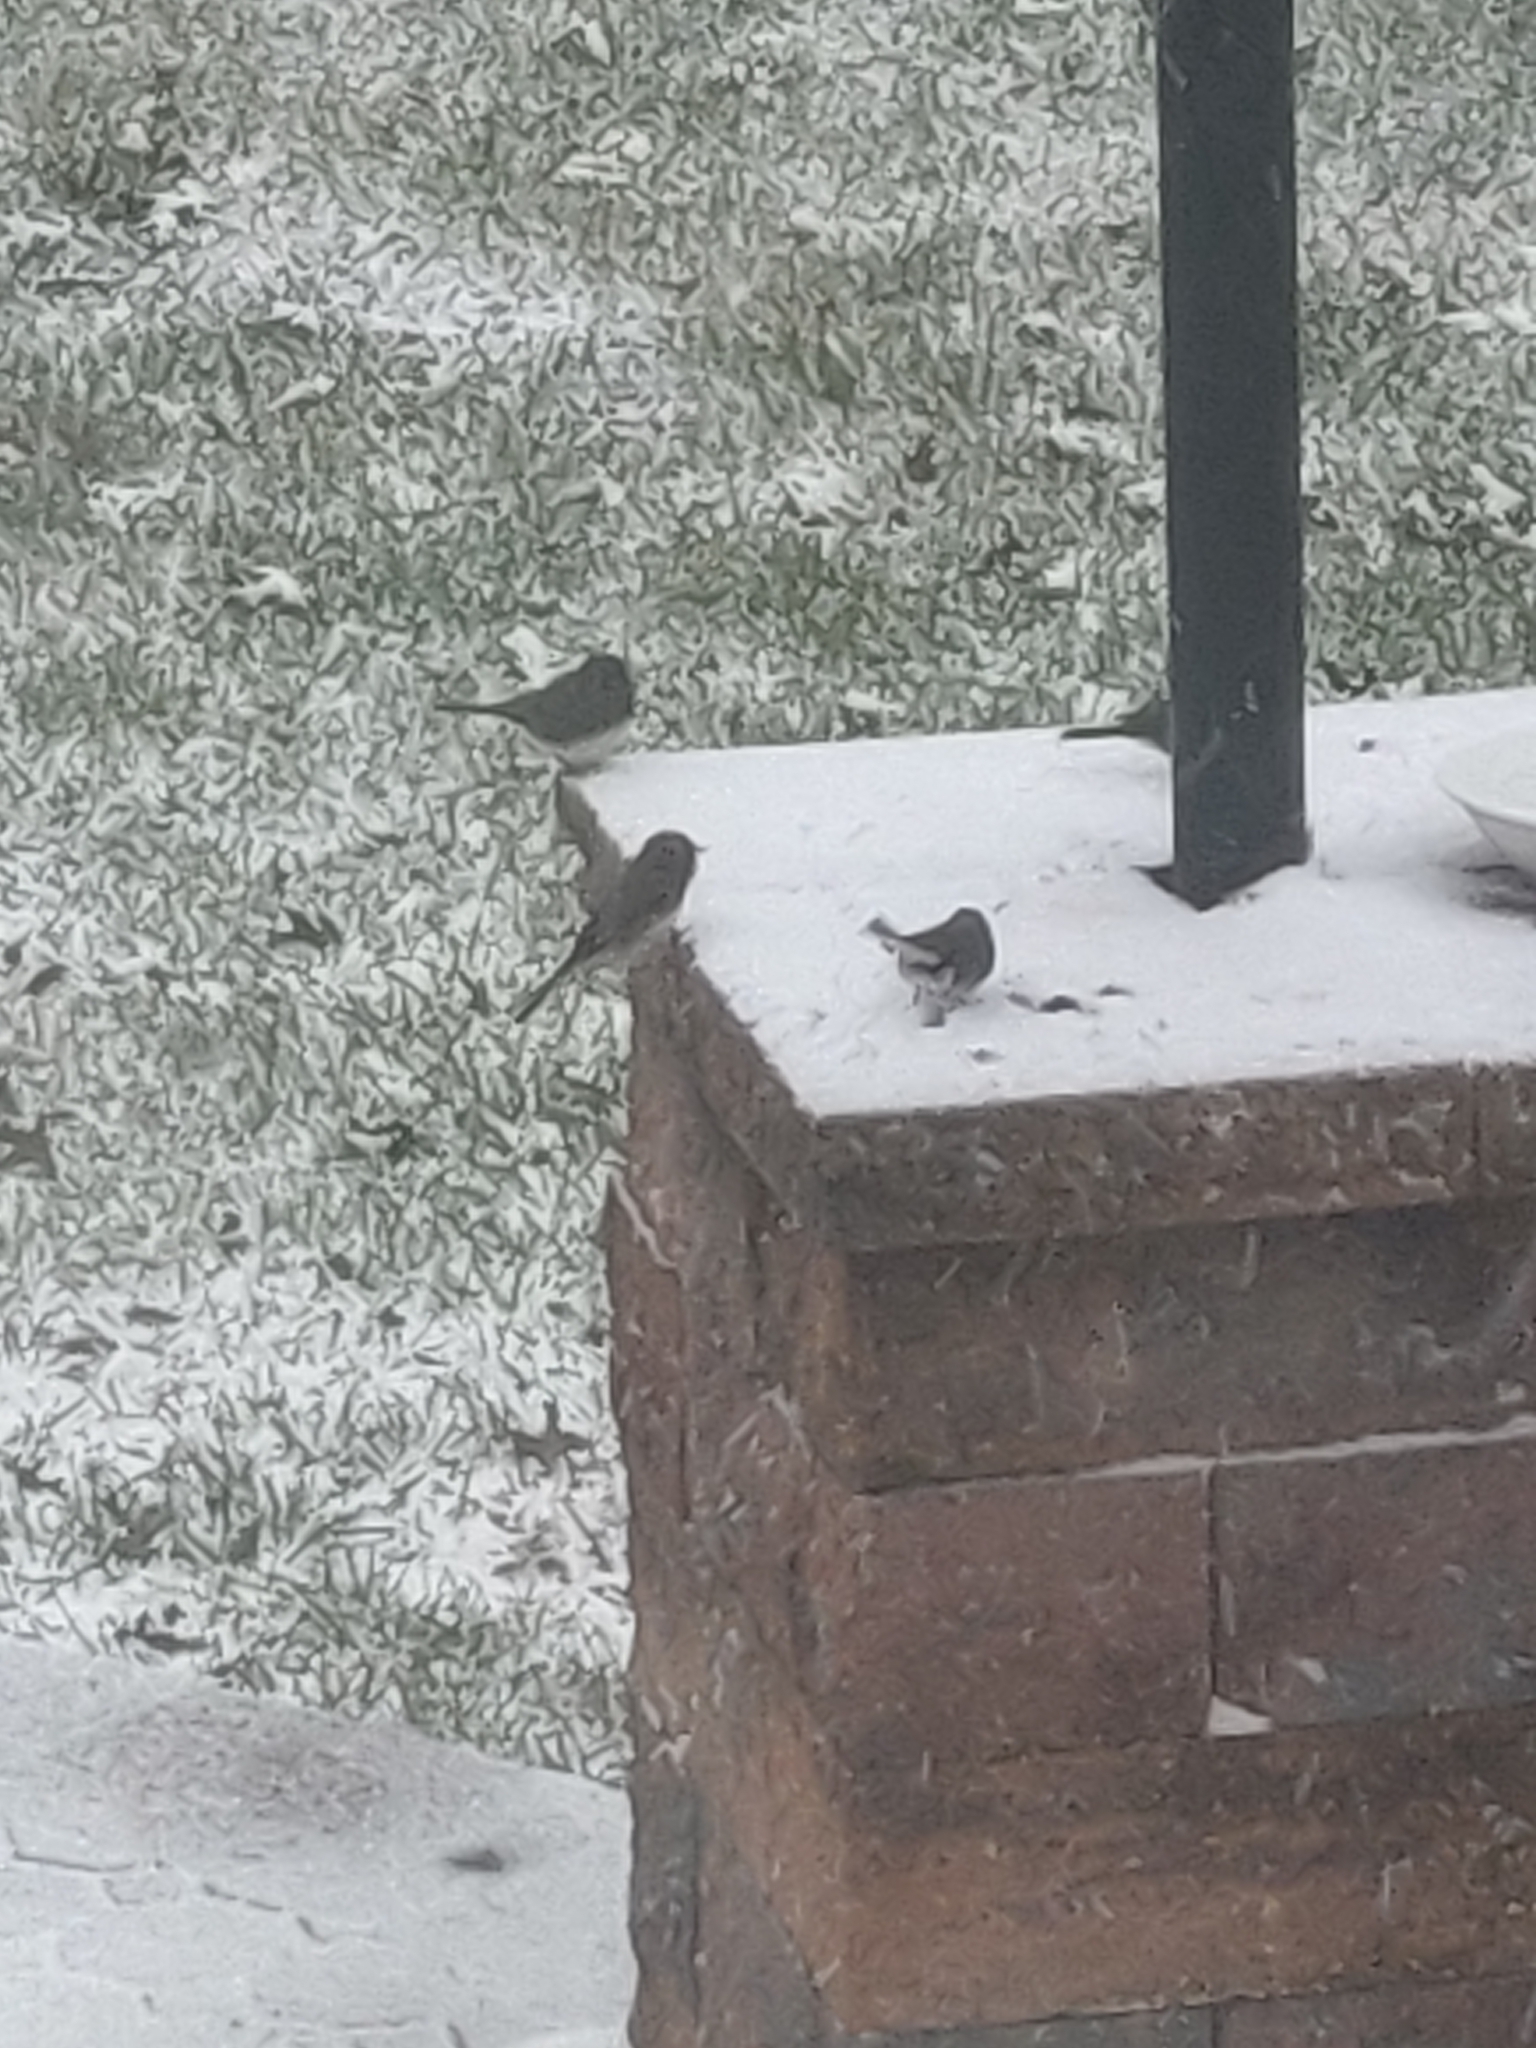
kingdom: Animalia
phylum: Chordata
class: Aves
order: Passeriformes
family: Passerellidae
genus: Junco
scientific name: Junco hyemalis
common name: Dark-eyed junco
